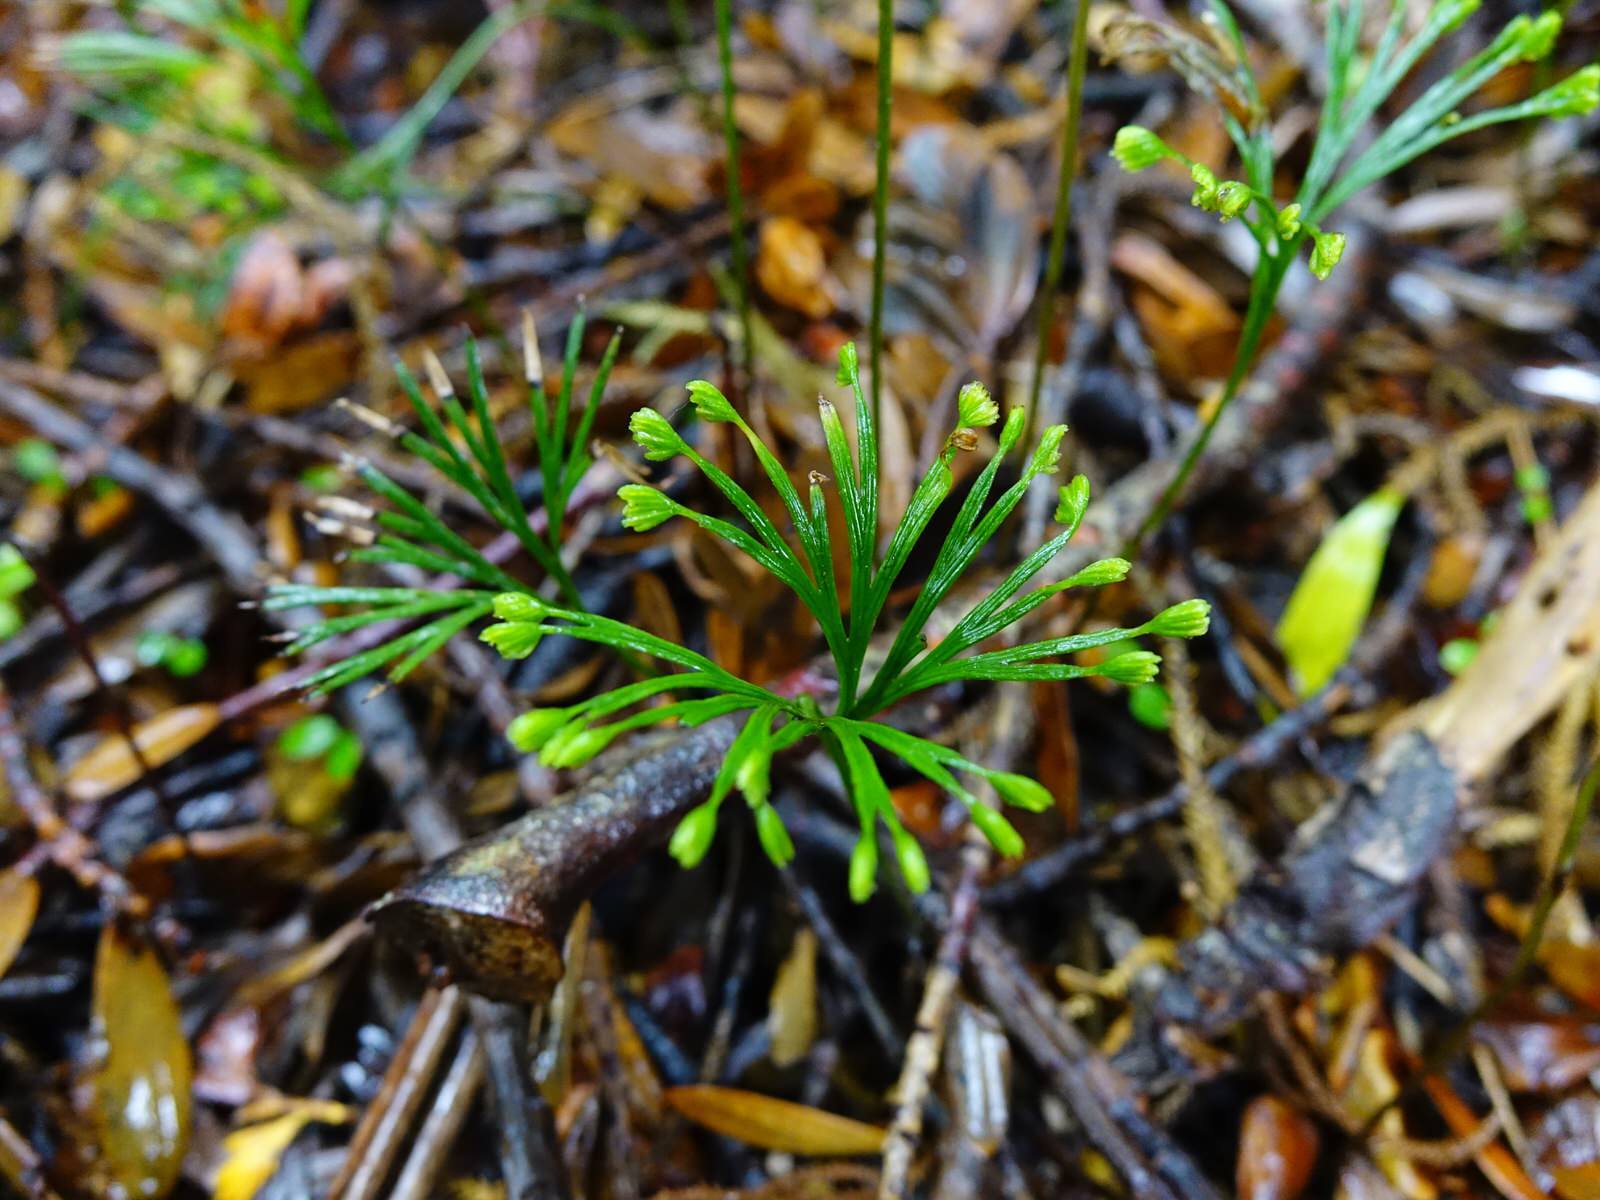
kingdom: Plantae
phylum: Tracheophyta
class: Polypodiopsida
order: Schizaeales
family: Schizaeaceae
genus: Schizaea
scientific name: Schizaea dichotoma
